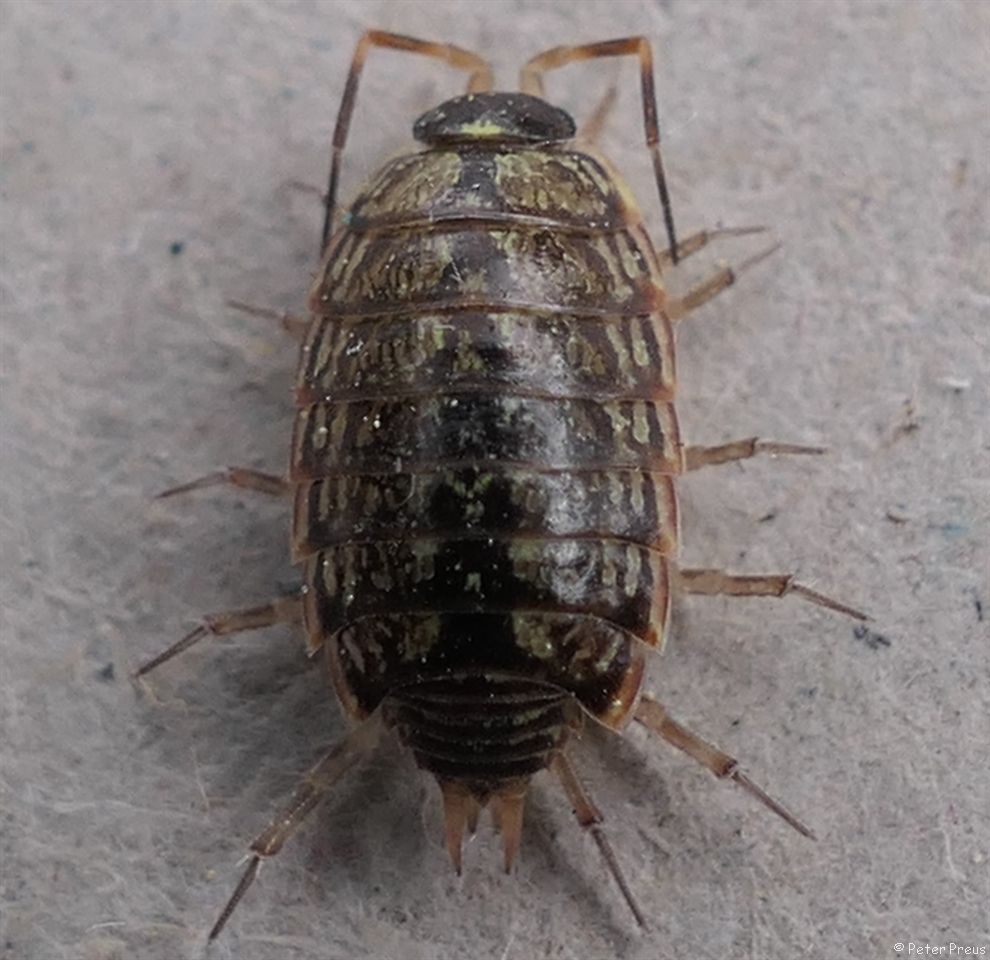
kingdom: Animalia
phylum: Arthropoda
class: Malacostraca
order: Isopoda
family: Philosciidae
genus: Philoscia
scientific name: Philoscia muscorum
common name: Common striped woodlouse
